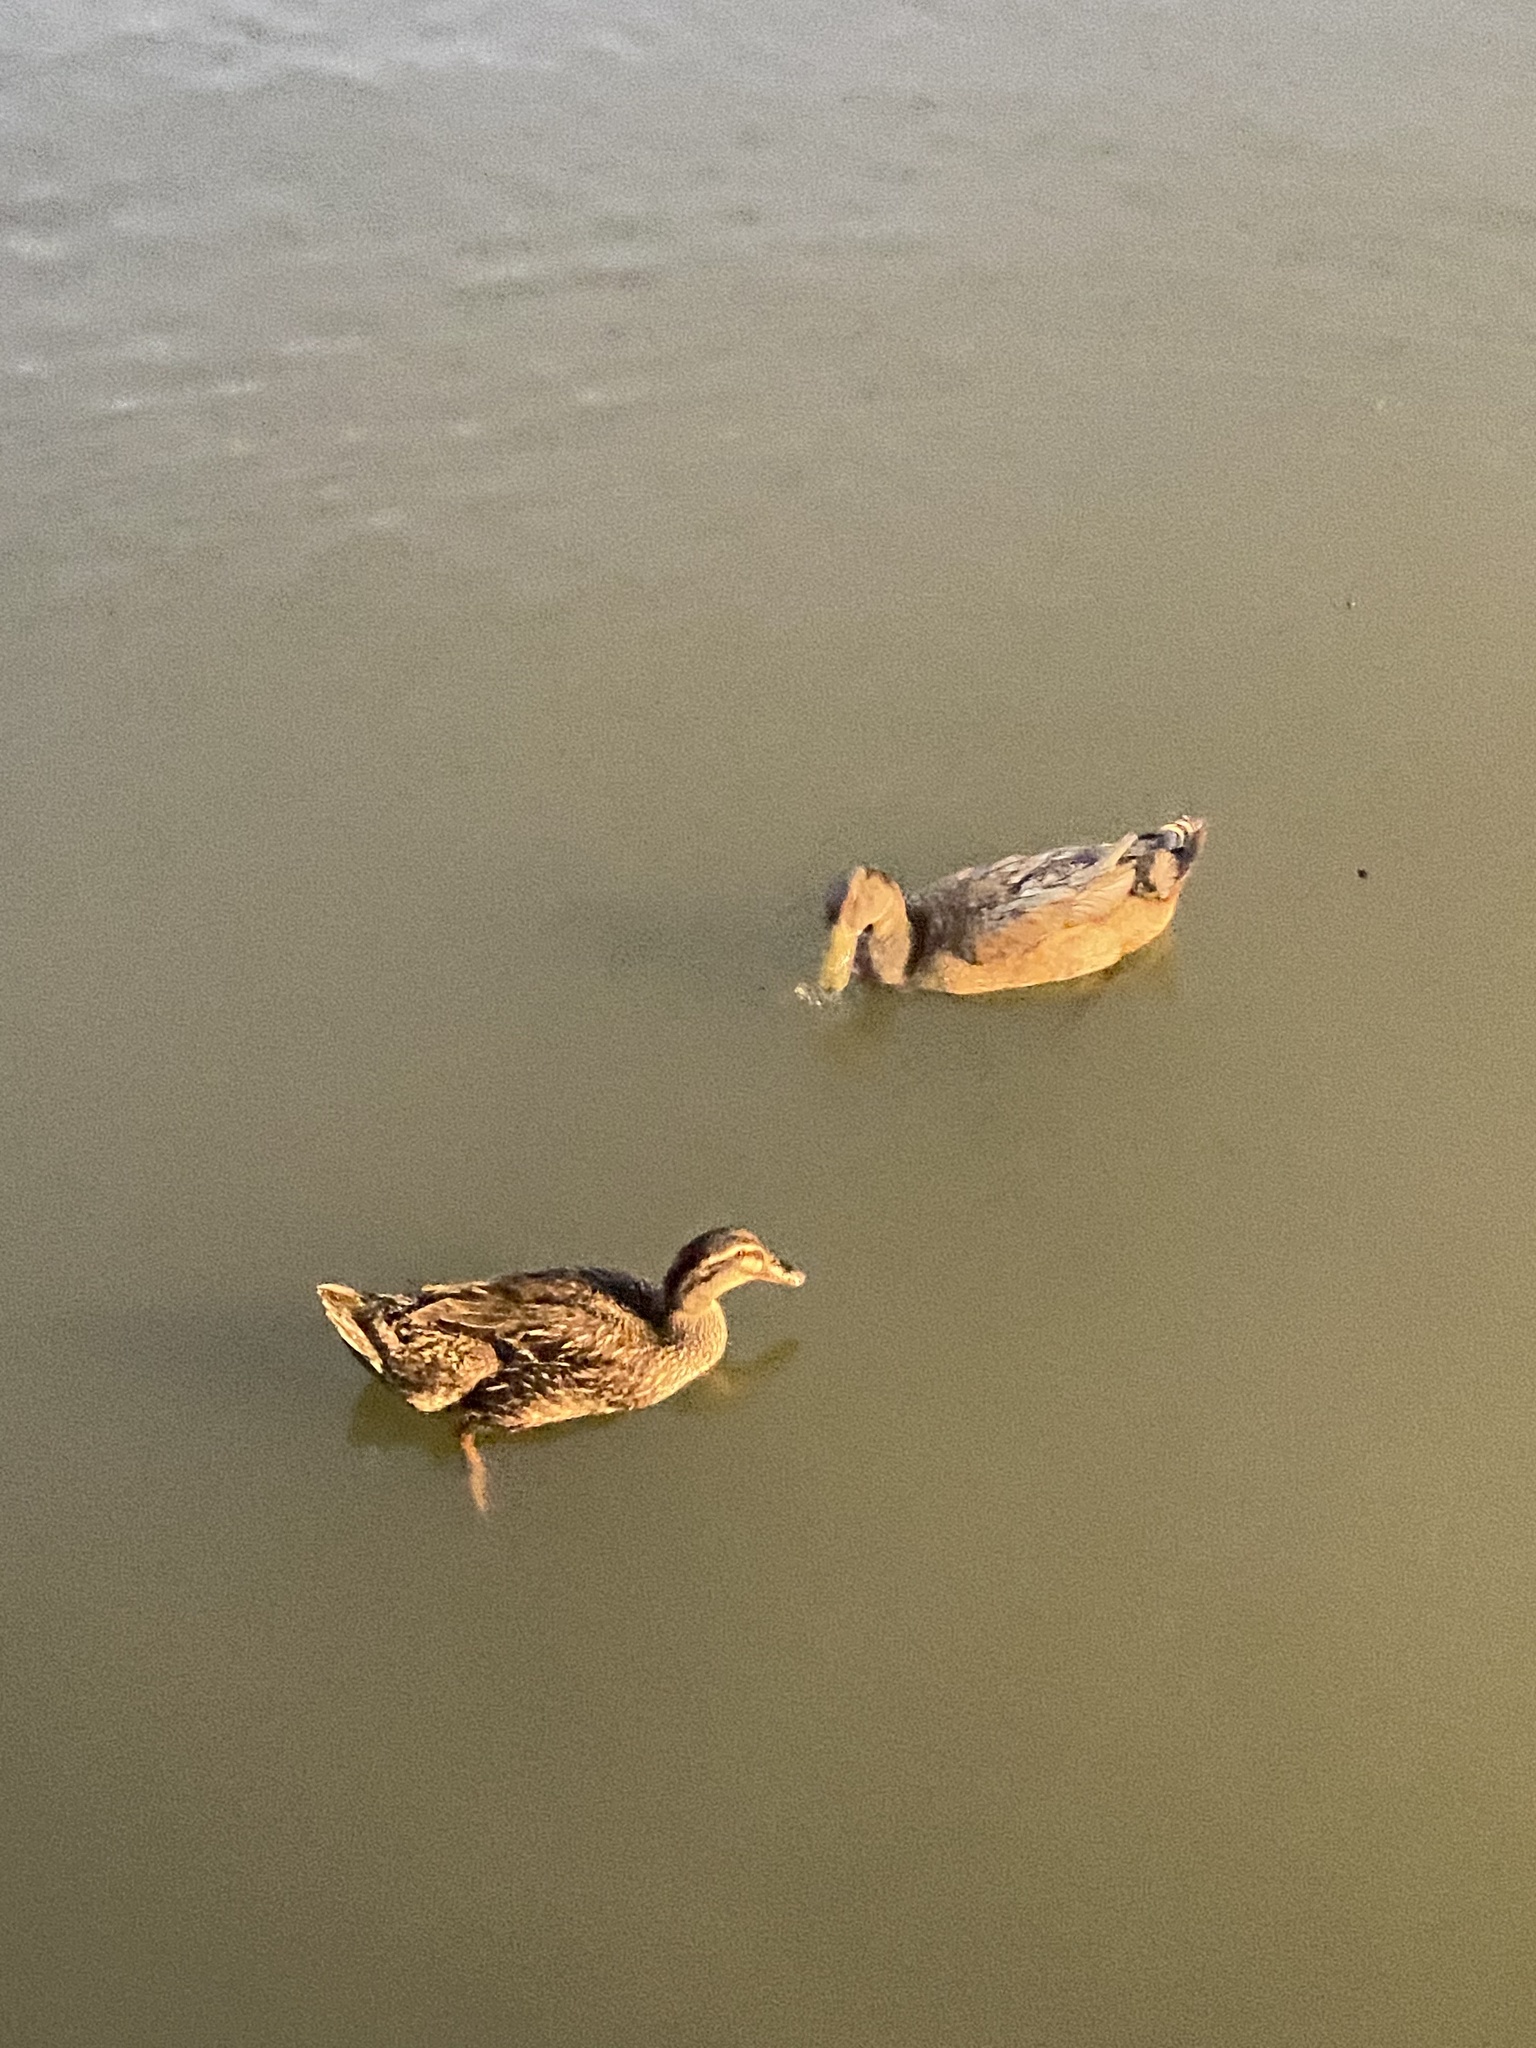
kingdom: Animalia
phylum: Chordata
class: Aves
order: Anseriformes
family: Anatidae
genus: Anas
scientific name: Anas platyrhynchos
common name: Mallard
